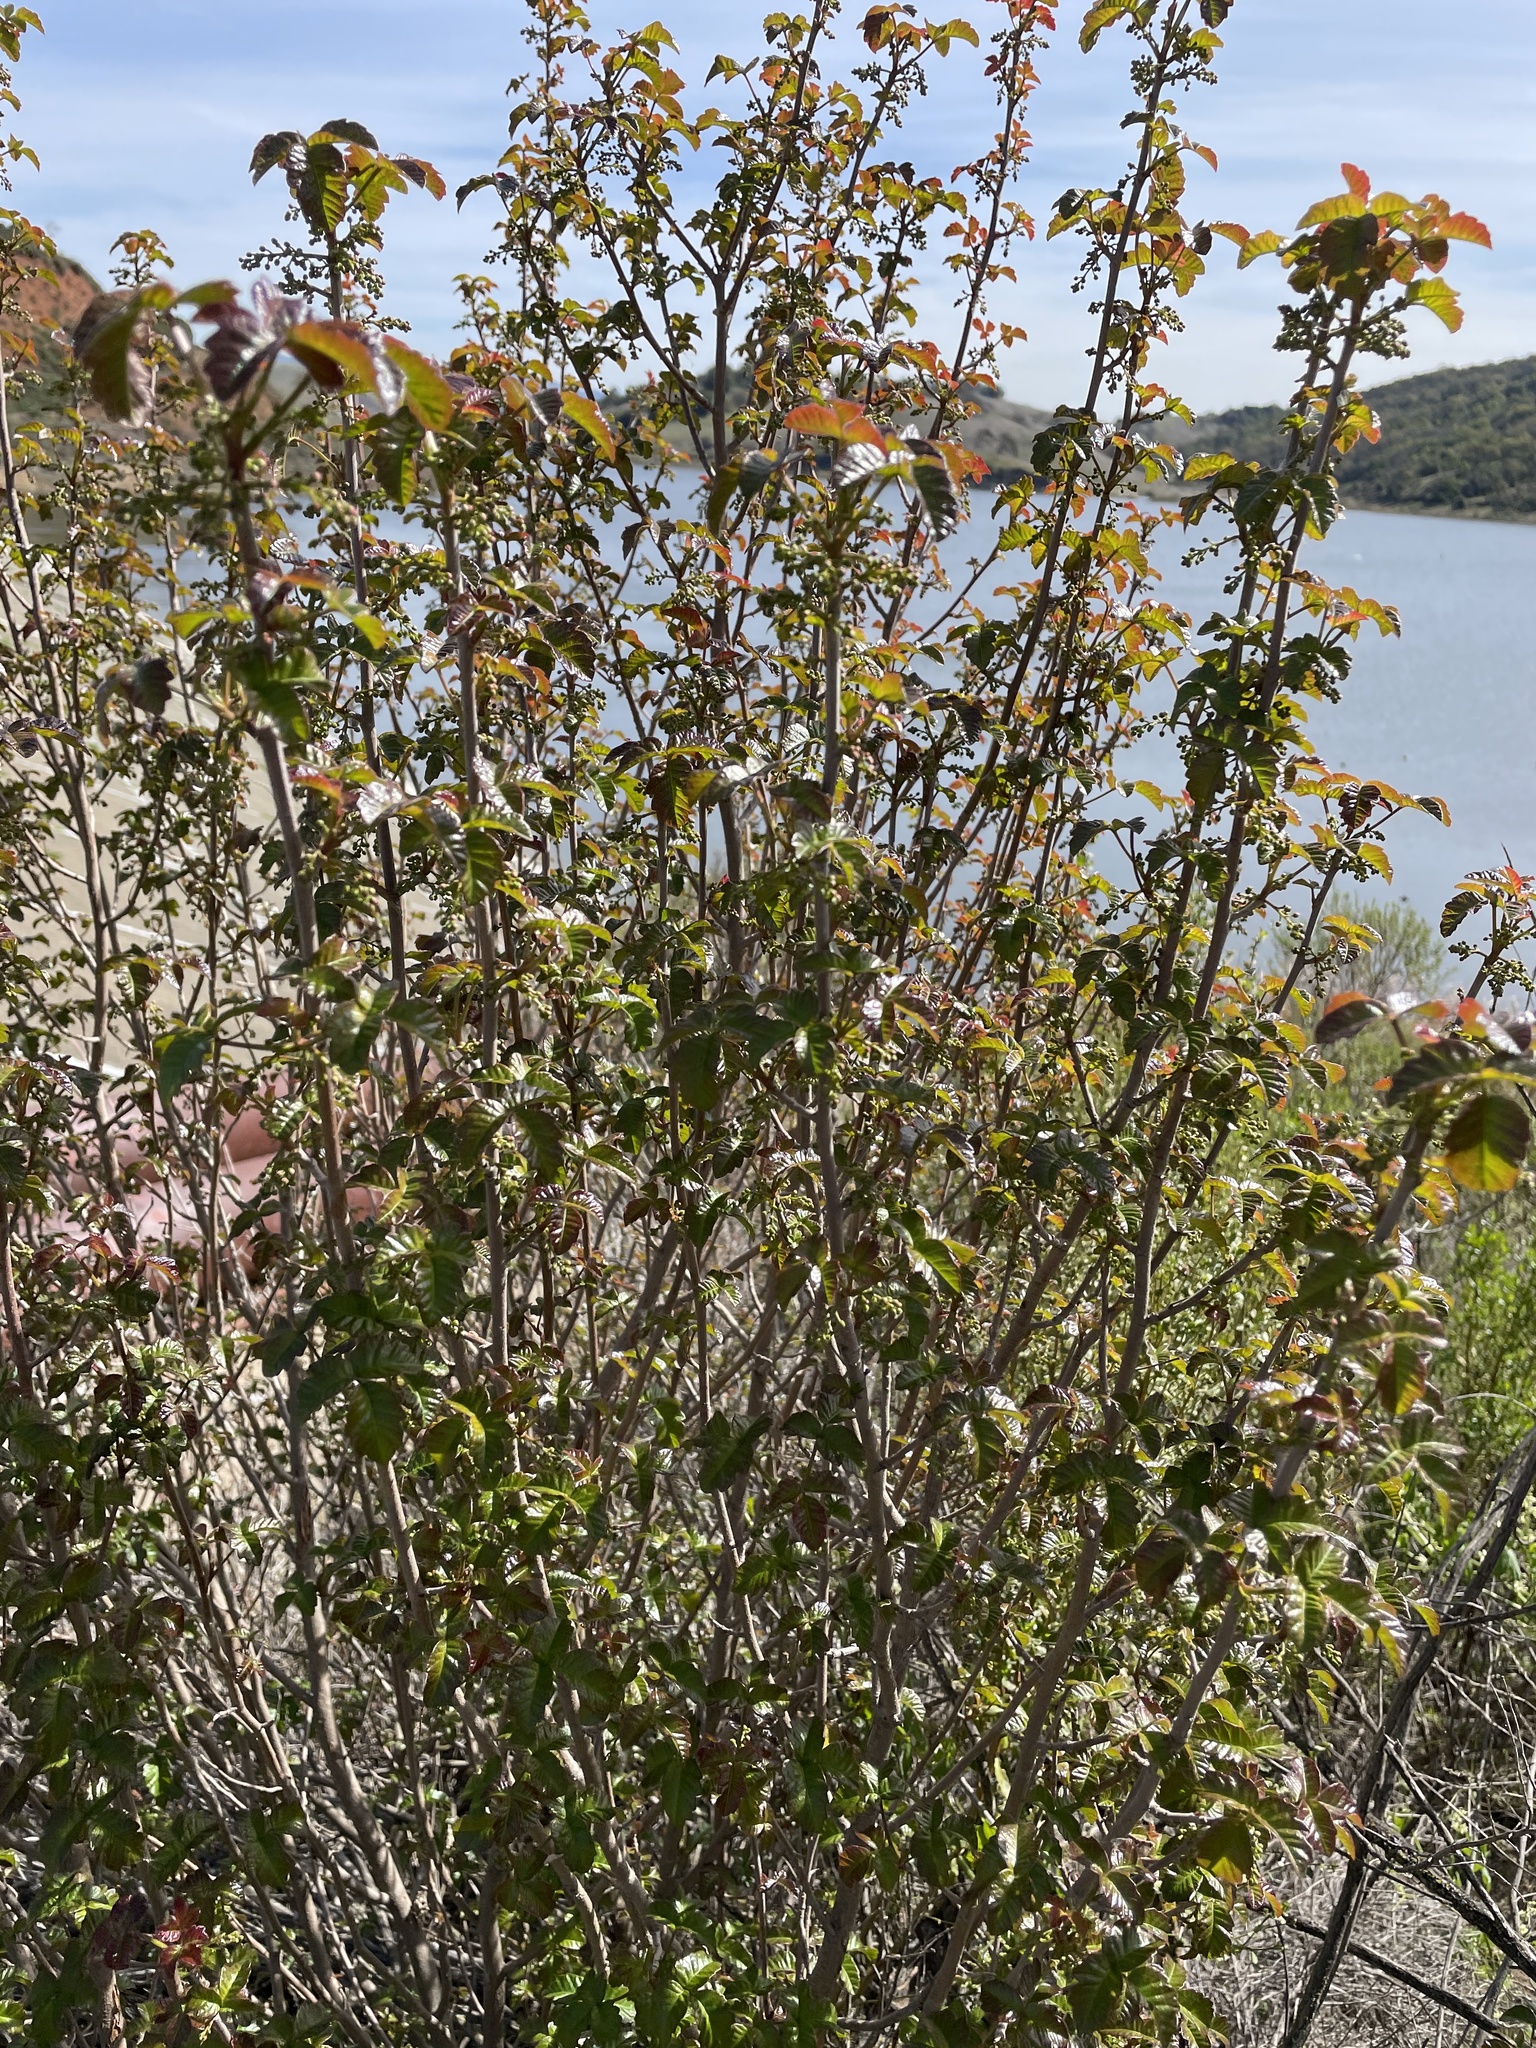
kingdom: Plantae
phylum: Tracheophyta
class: Magnoliopsida
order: Sapindales
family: Anacardiaceae
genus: Toxicodendron
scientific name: Toxicodendron diversilobum
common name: Pacific poison-oak
